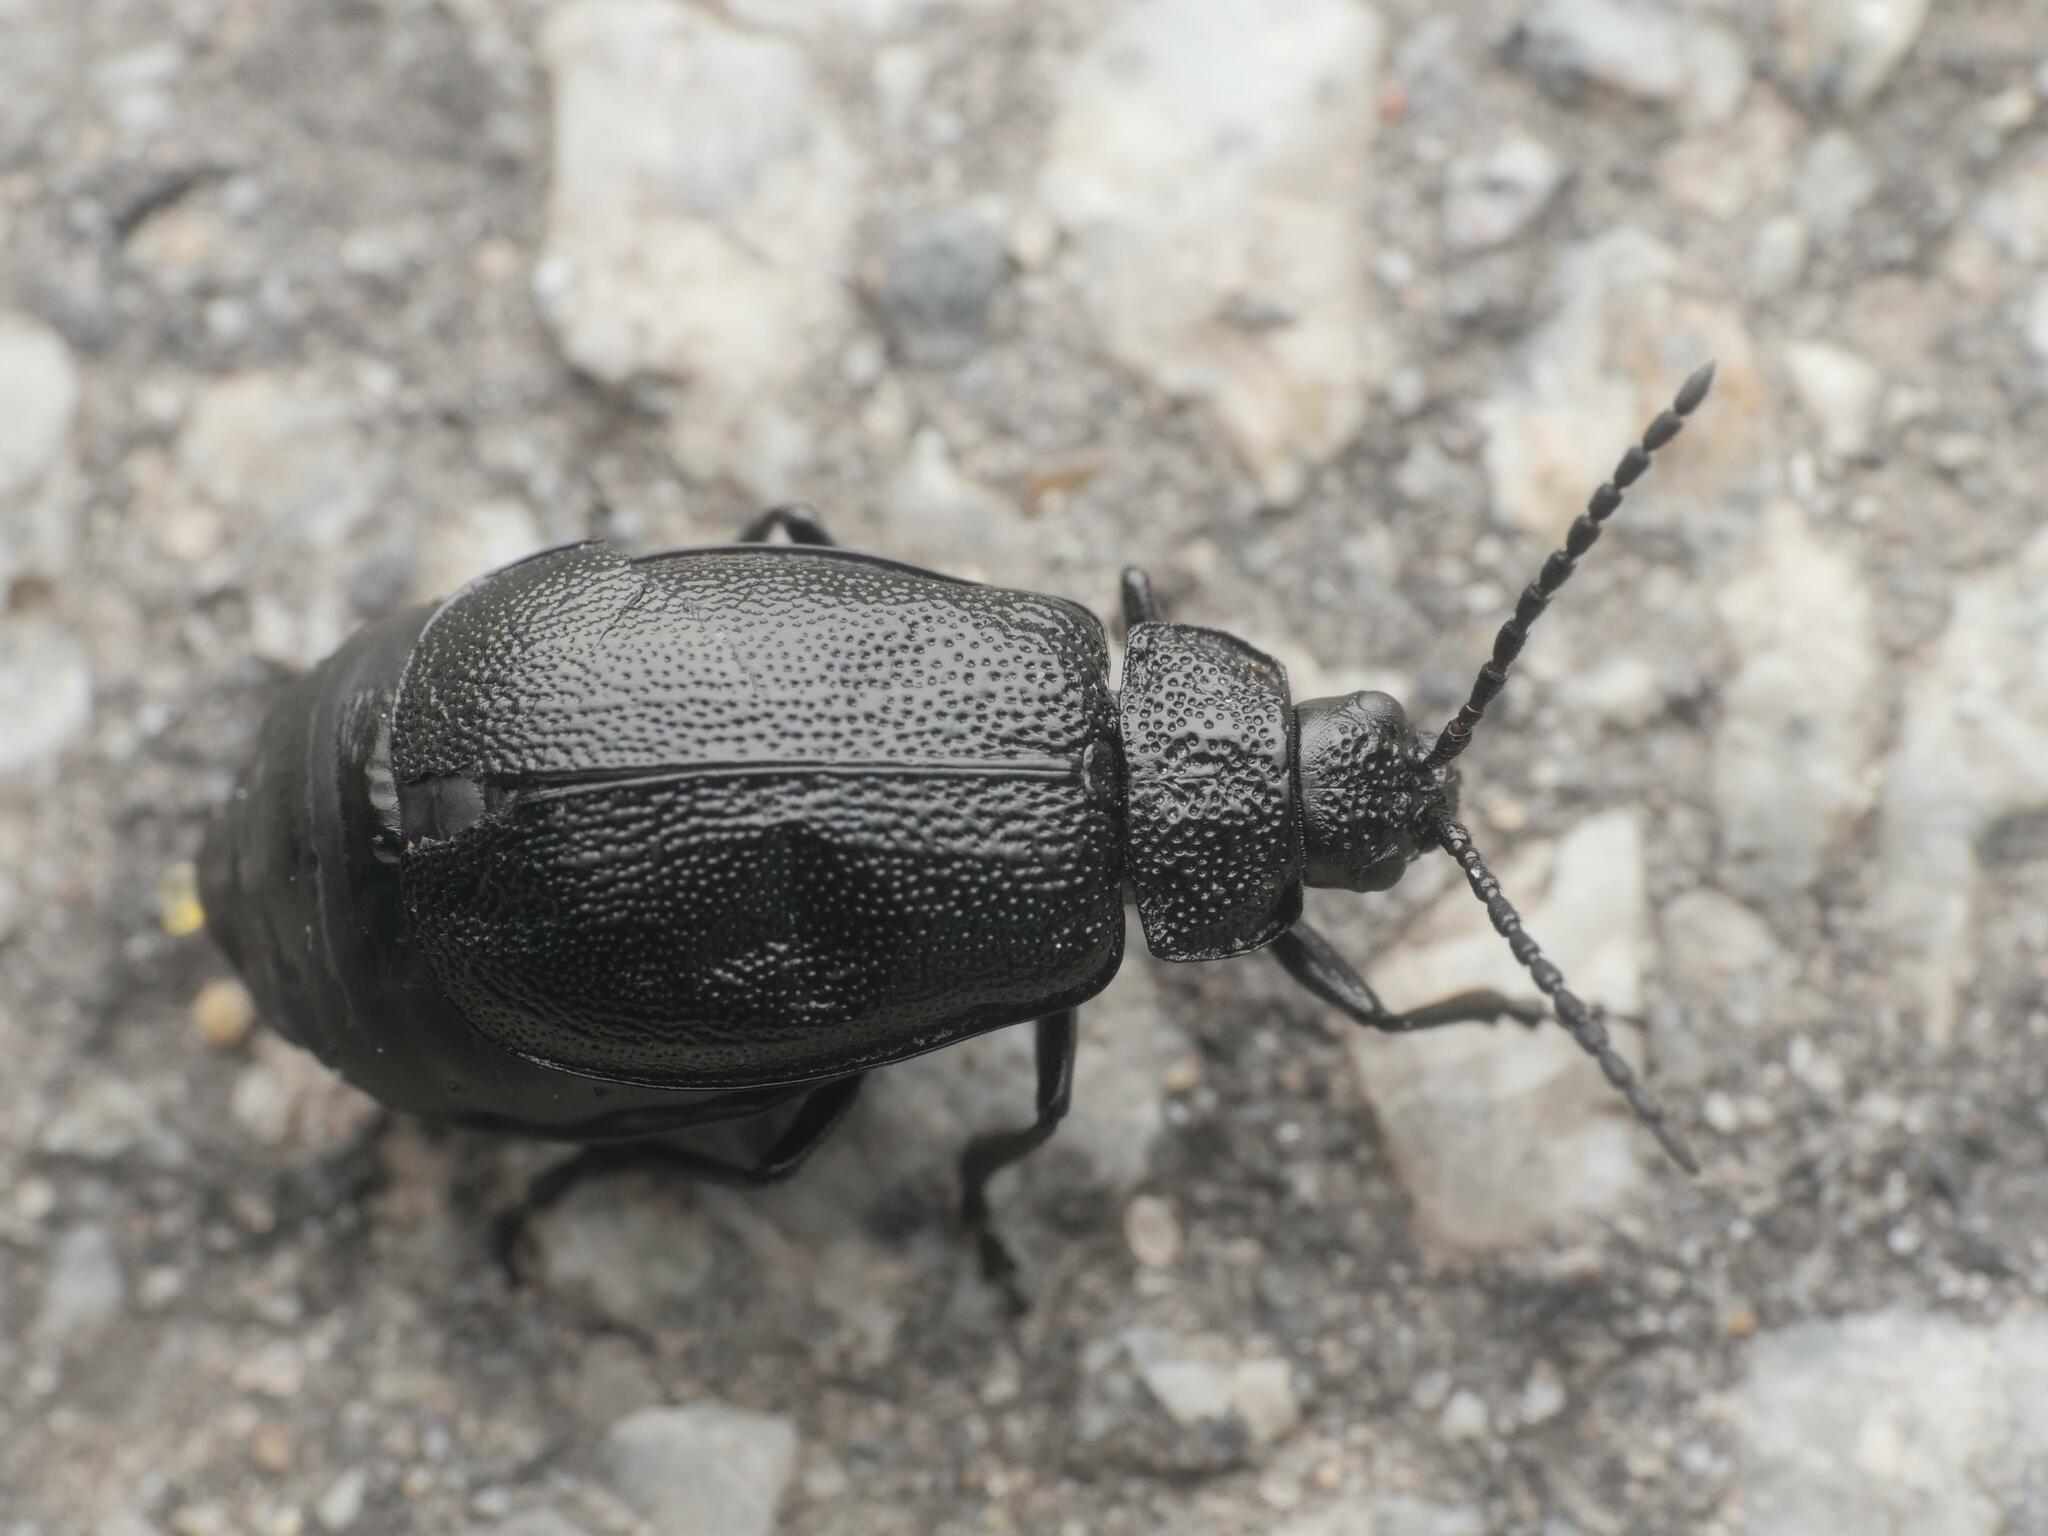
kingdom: Animalia
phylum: Arthropoda
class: Insecta
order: Coleoptera
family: Chrysomelidae
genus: Galeruca
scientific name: Galeruca tanaceti
